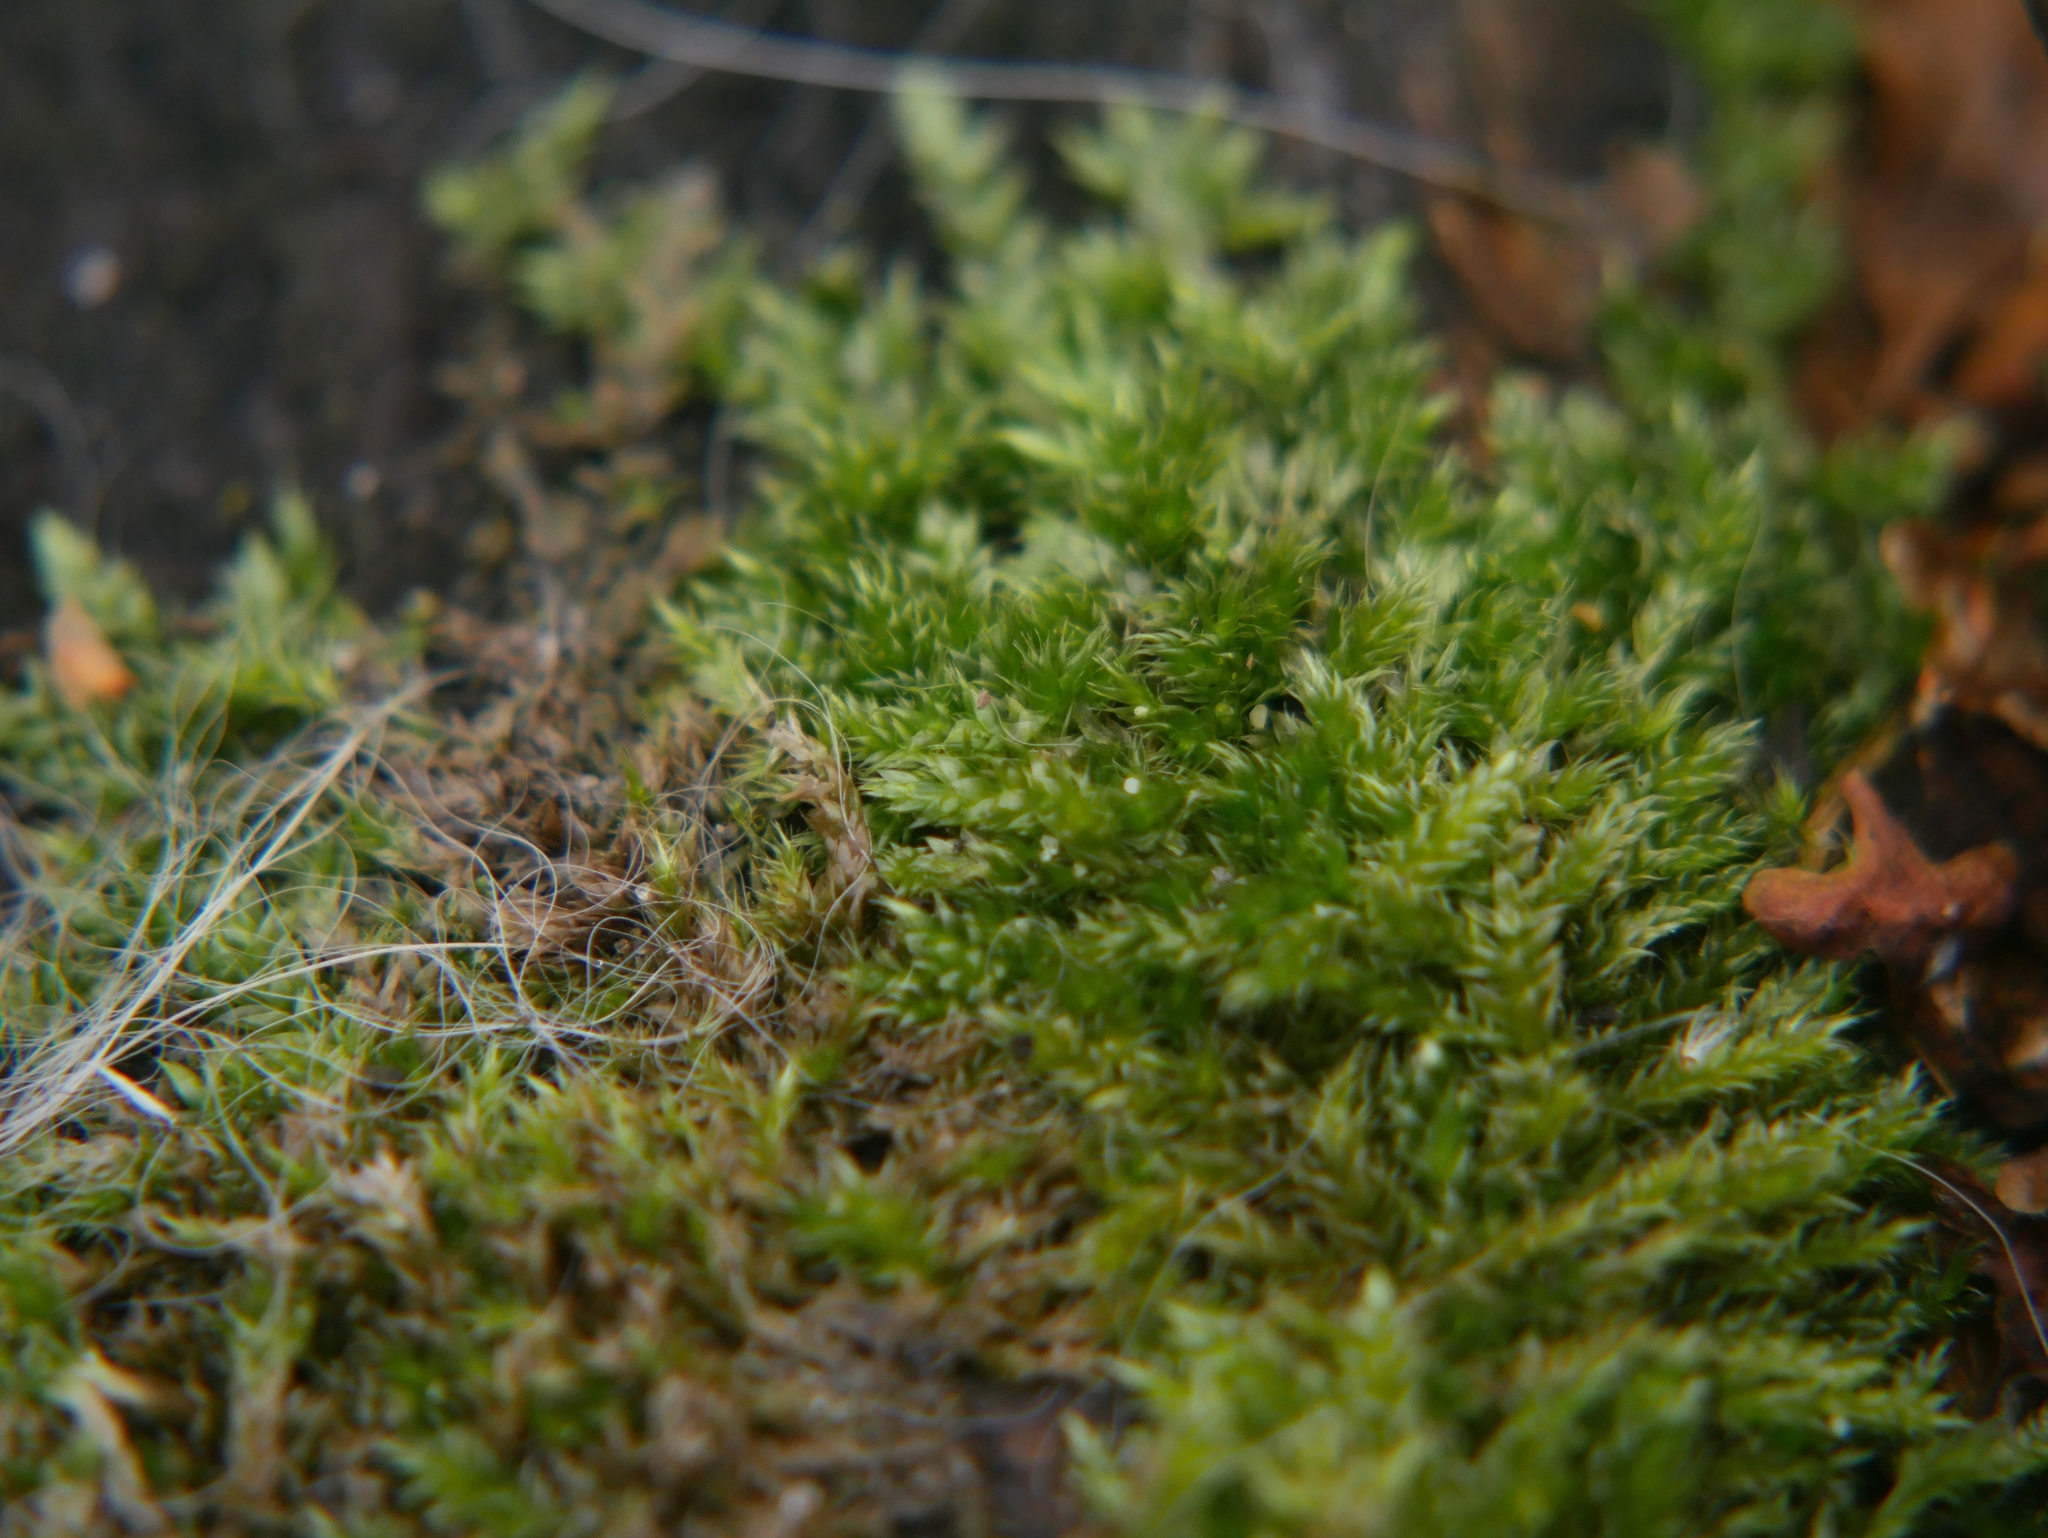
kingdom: Plantae
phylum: Bryophyta
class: Bryopsida
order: Hypnales
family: Hypnaceae
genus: Hypnum
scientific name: Hypnum cupressiforme
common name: Cypress-leaved plait-moss
